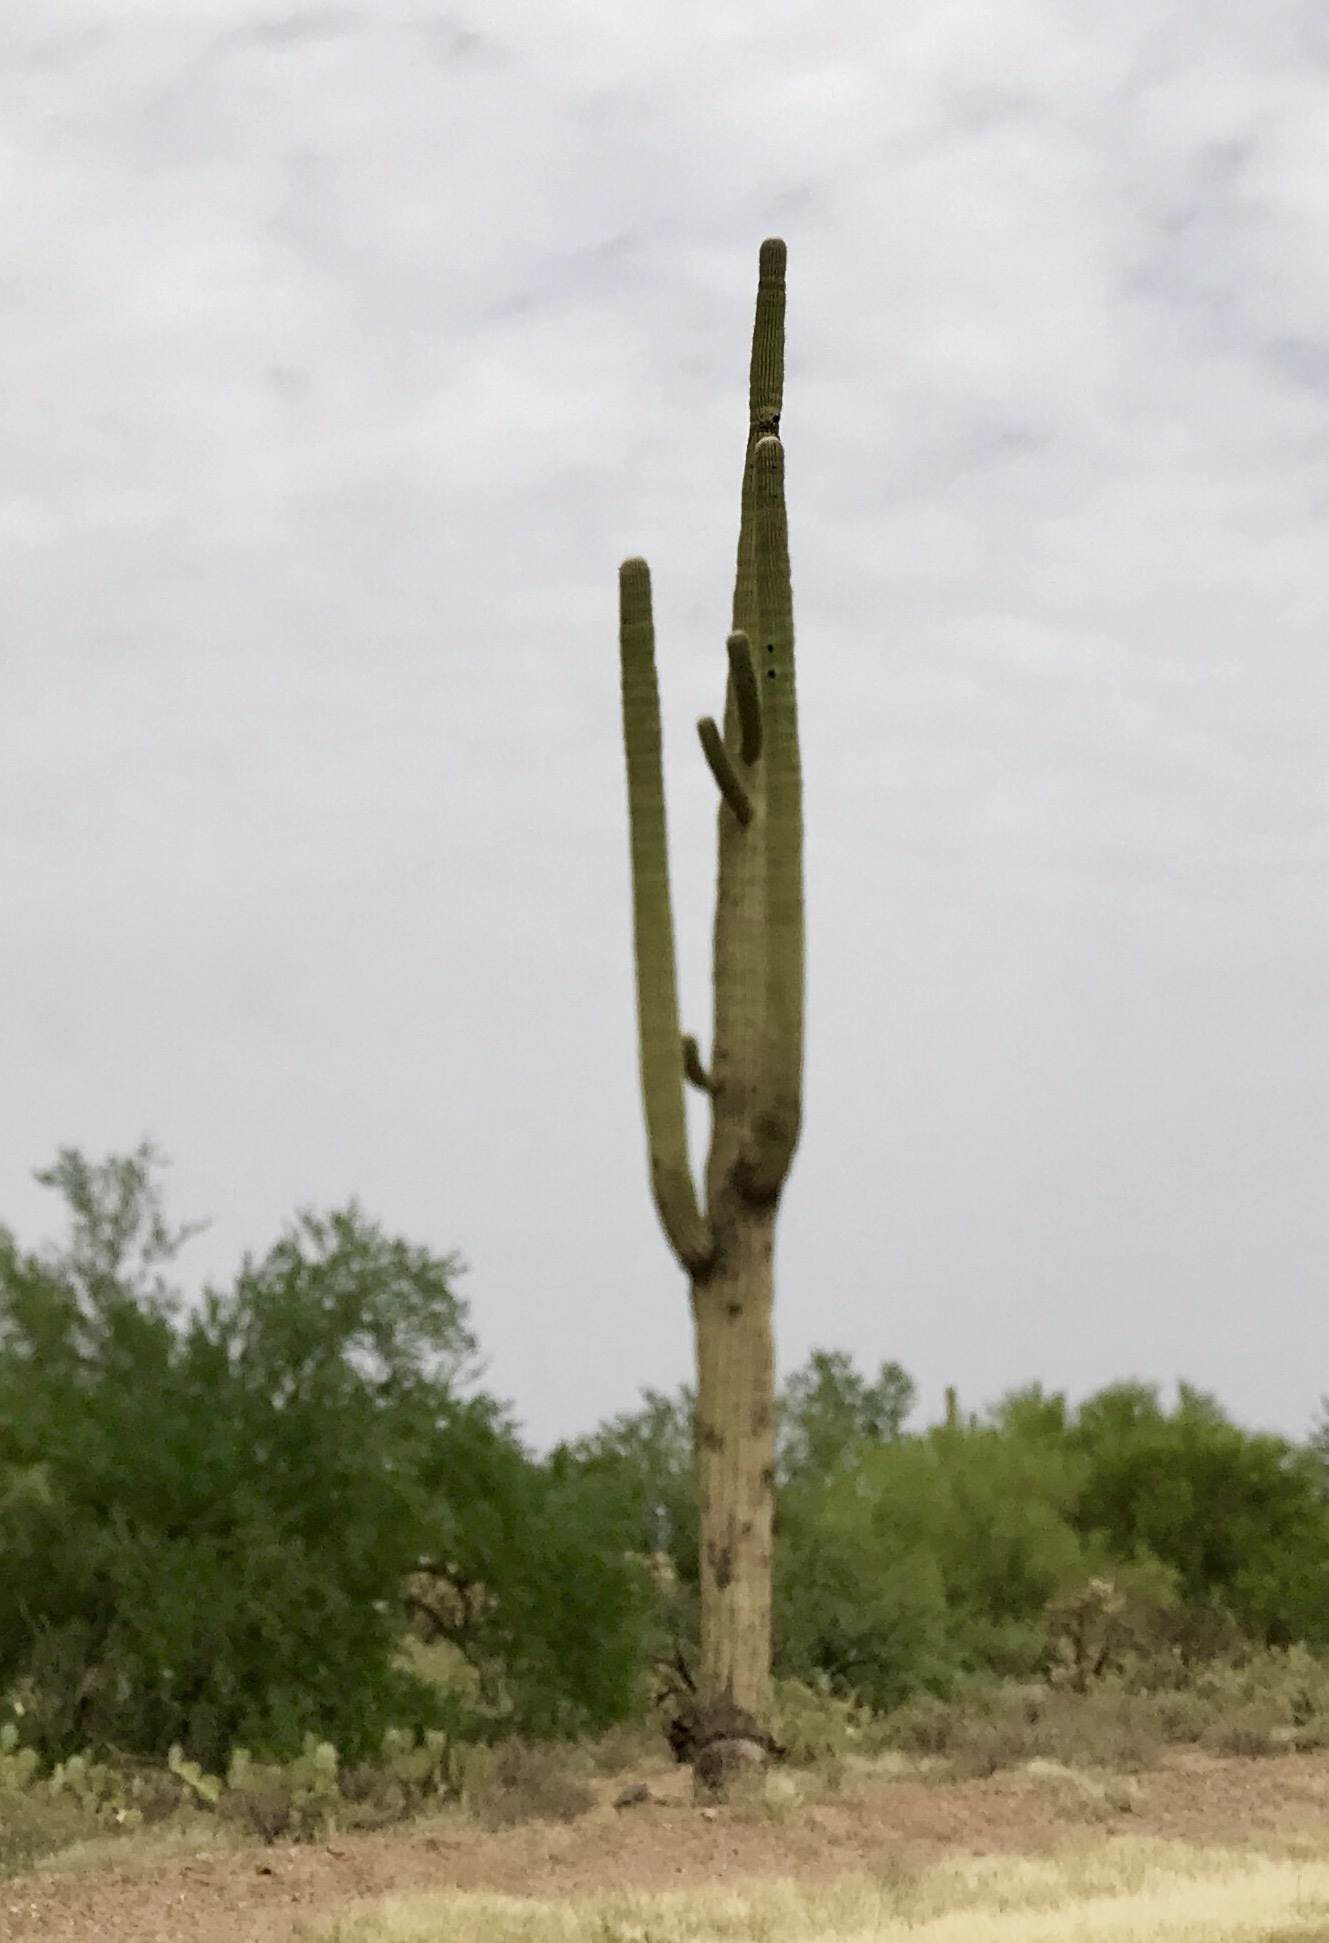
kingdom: Plantae
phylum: Tracheophyta
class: Magnoliopsida
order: Caryophyllales
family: Cactaceae
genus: Carnegiea
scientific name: Carnegiea gigantea
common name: Saguaro
